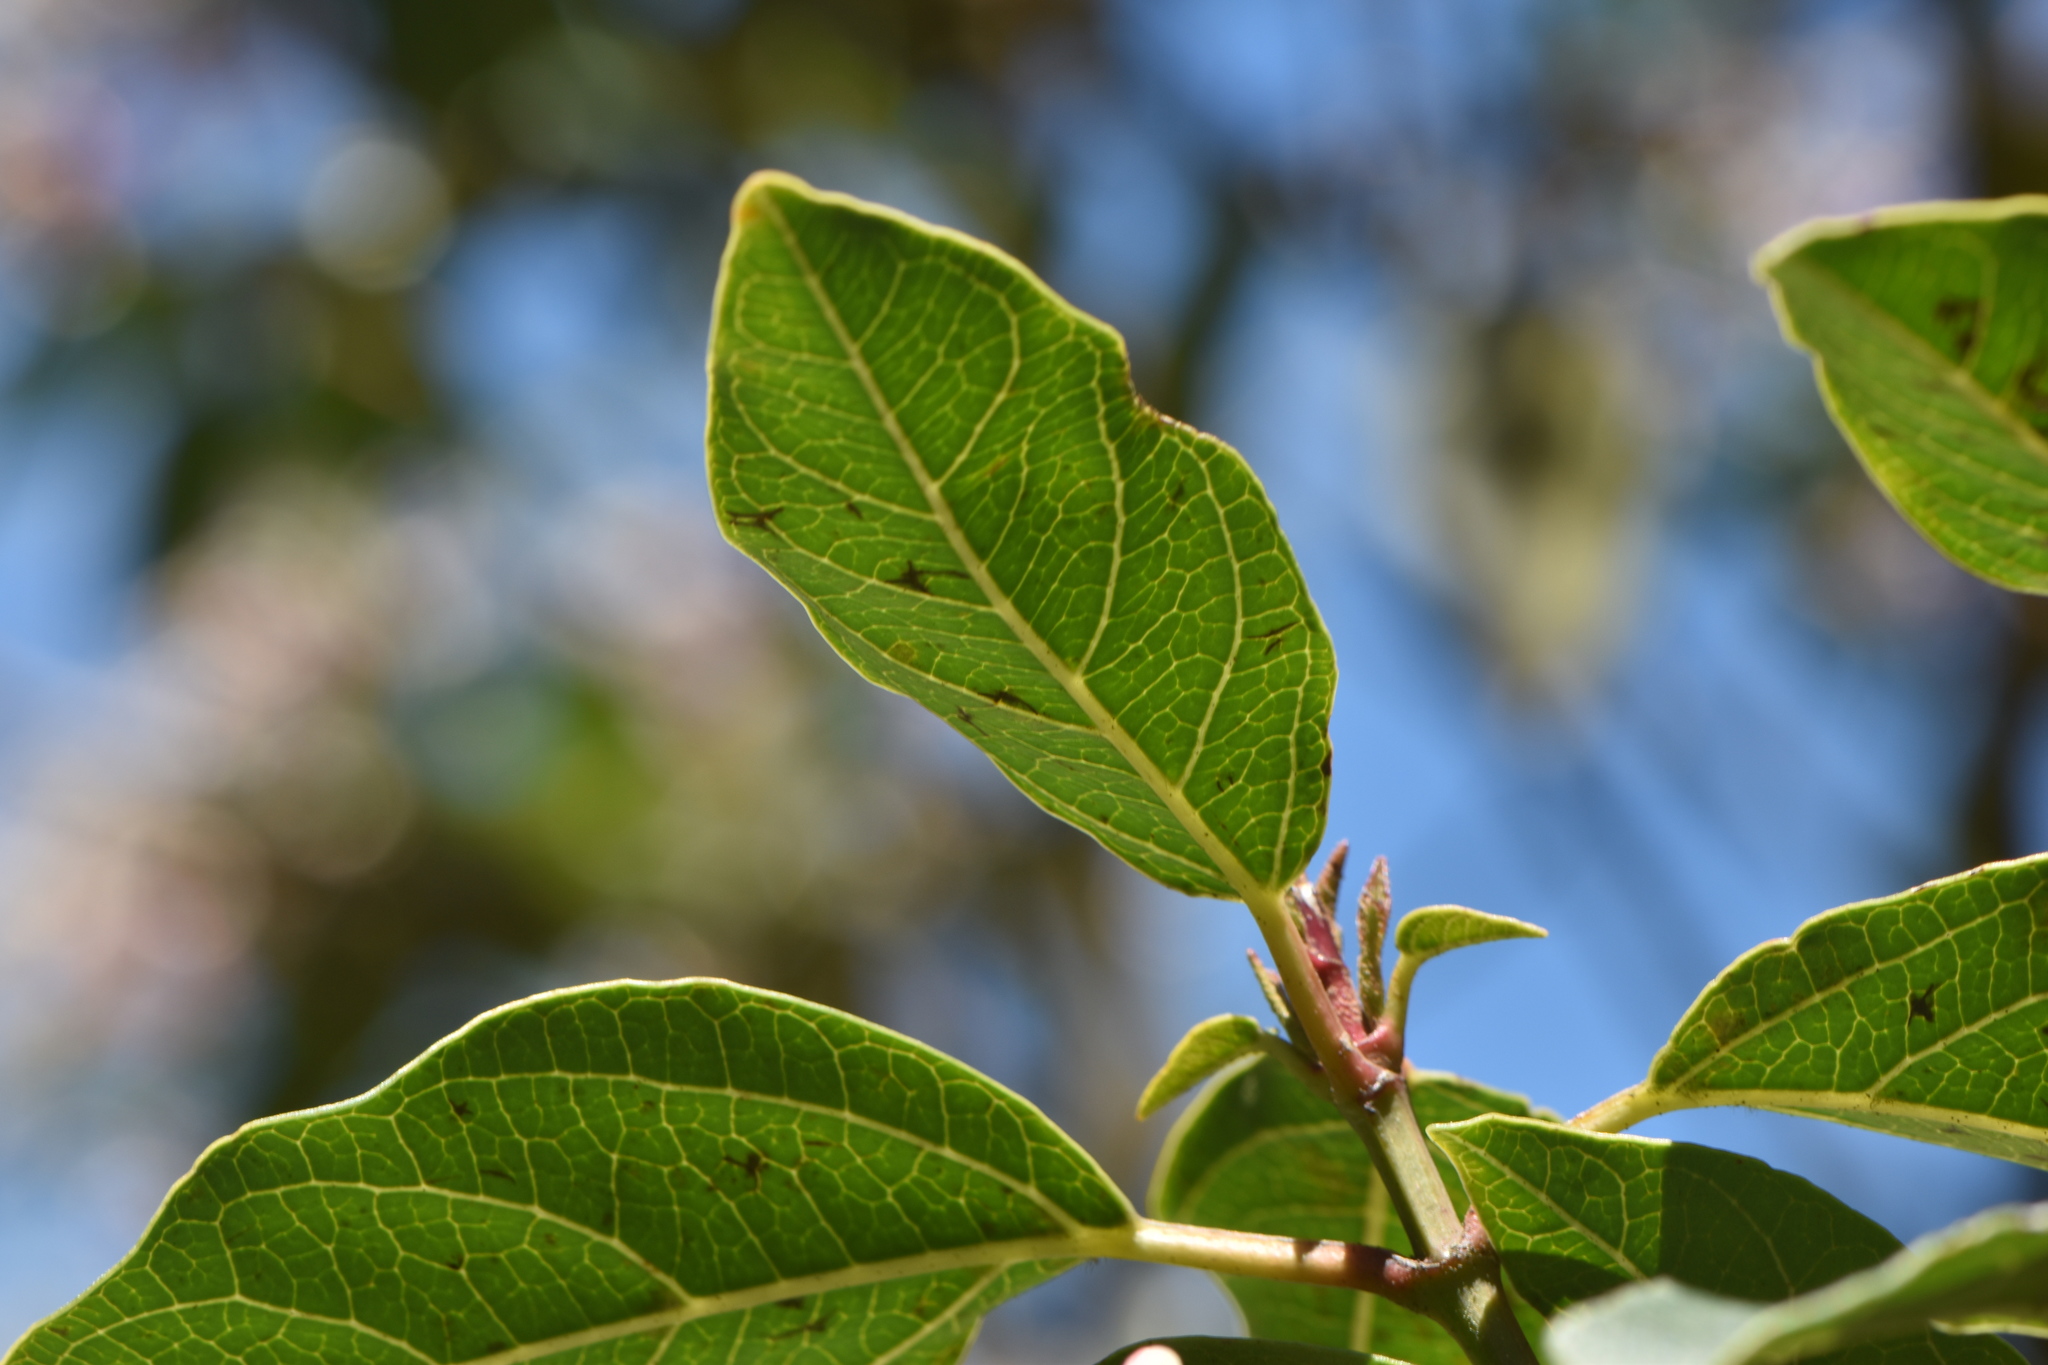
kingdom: Plantae
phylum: Tracheophyta
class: Magnoliopsida
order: Dipsacales
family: Viburnaceae
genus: Viburnum
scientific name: Viburnum tinus
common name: Laurustinus
